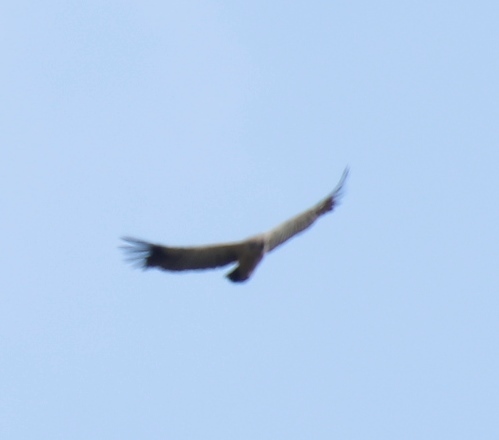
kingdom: Animalia
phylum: Chordata
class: Aves
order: Accipitriformes
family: Accipitridae
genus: Gyps
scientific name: Gyps coprotheres
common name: Cape vulture
